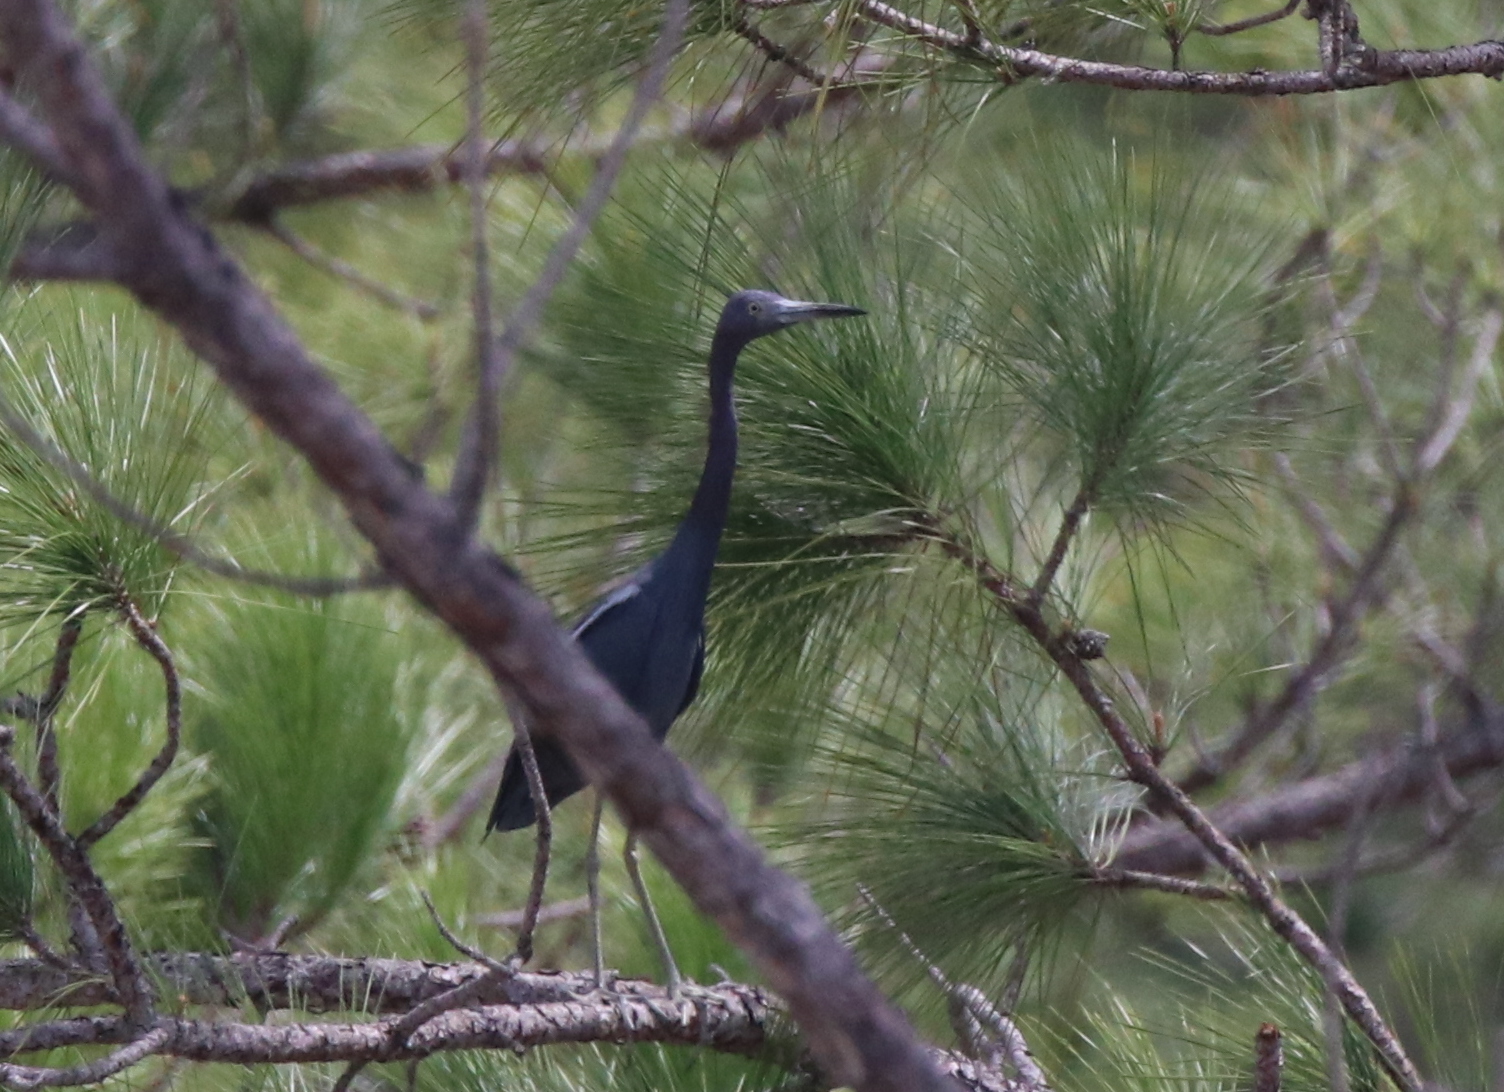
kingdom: Animalia
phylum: Chordata
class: Aves
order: Pelecaniformes
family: Ardeidae
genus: Egretta
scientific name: Egretta caerulea
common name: Little blue heron
